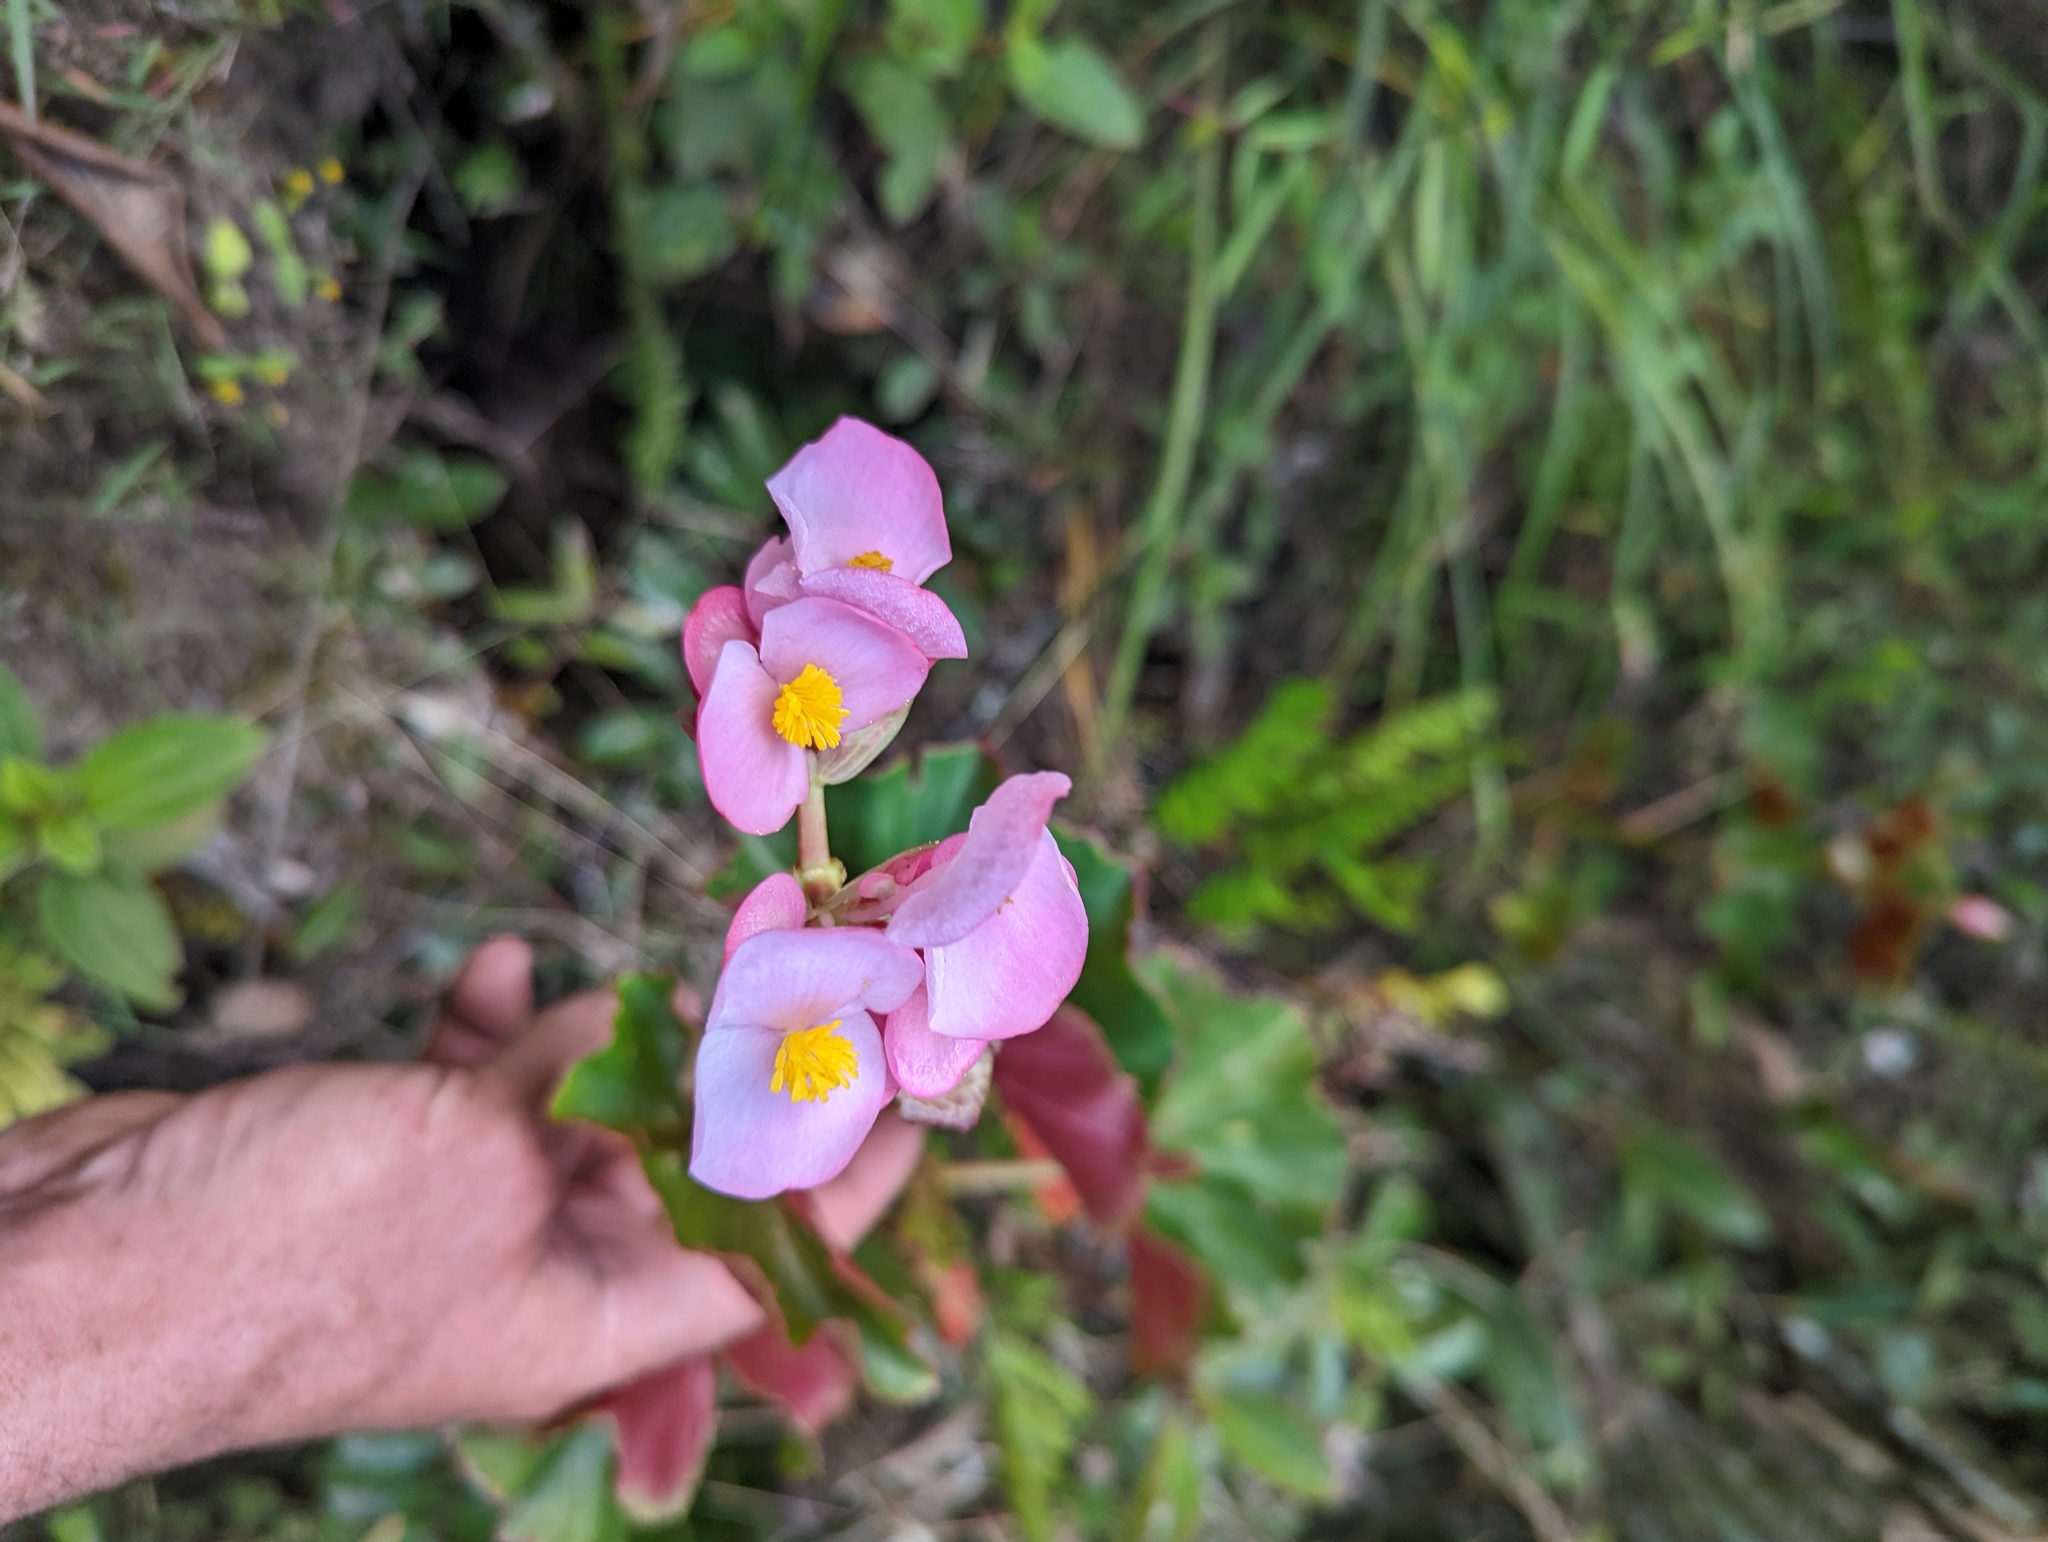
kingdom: Plantae
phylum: Tracheophyta
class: Magnoliopsida
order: Cucurbitales
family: Begoniaceae
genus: Begonia
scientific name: Begonia bracteosa
